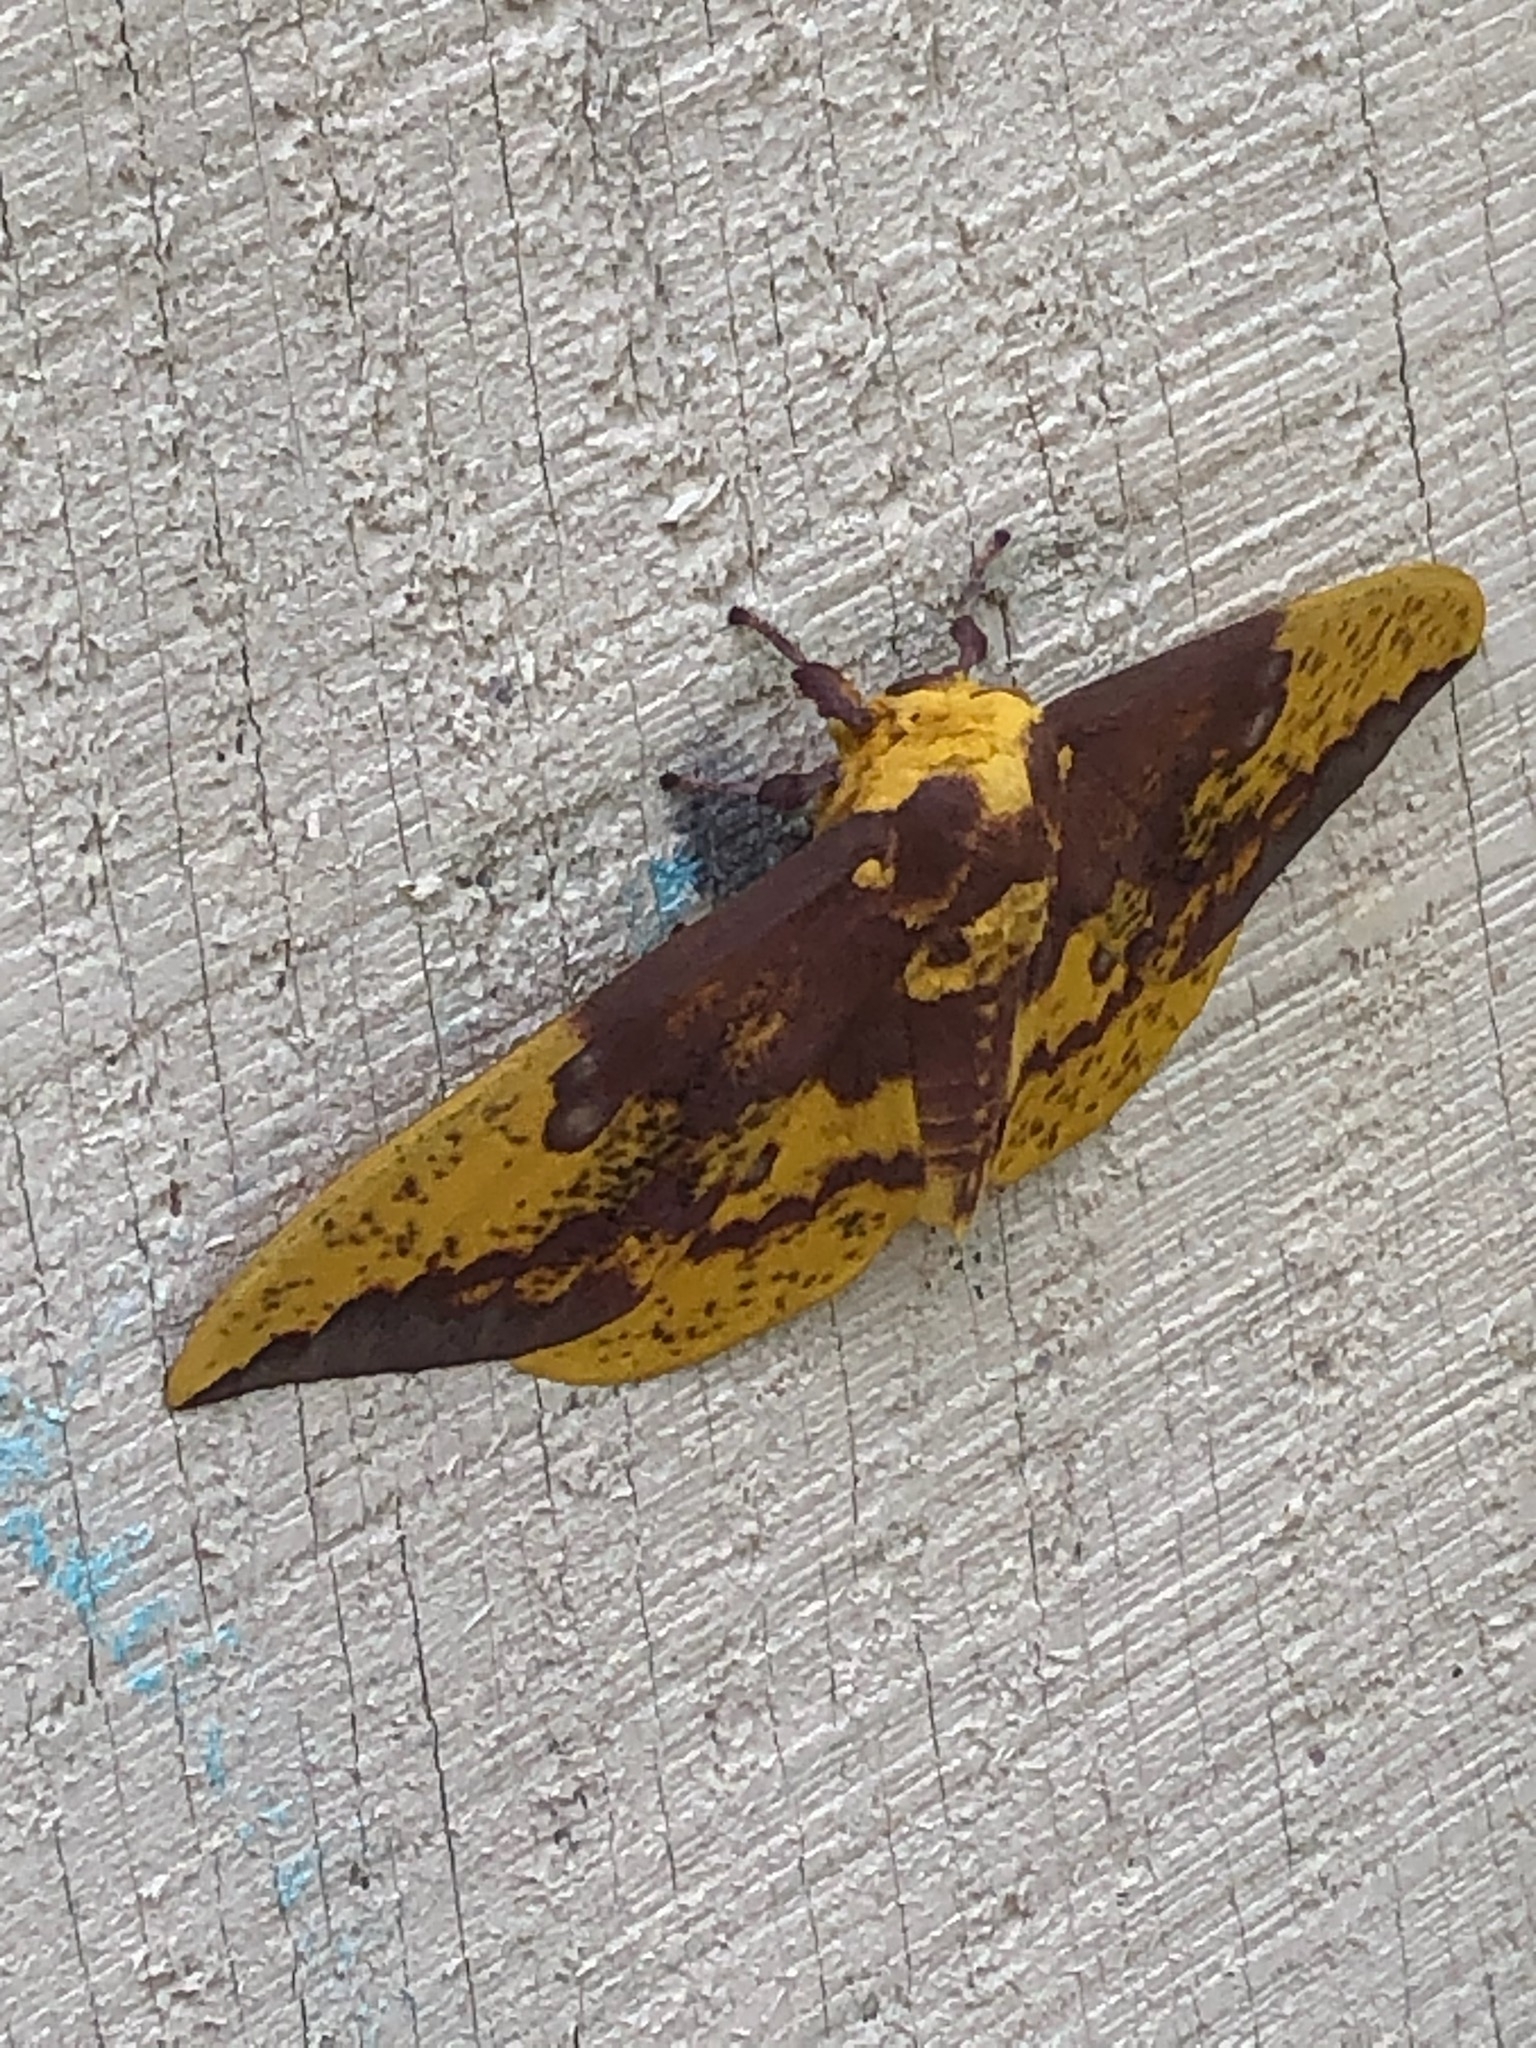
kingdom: Animalia
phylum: Arthropoda
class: Insecta
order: Lepidoptera
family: Saturniidae
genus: Eacles
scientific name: Eacles imperialis
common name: Imperial moth
